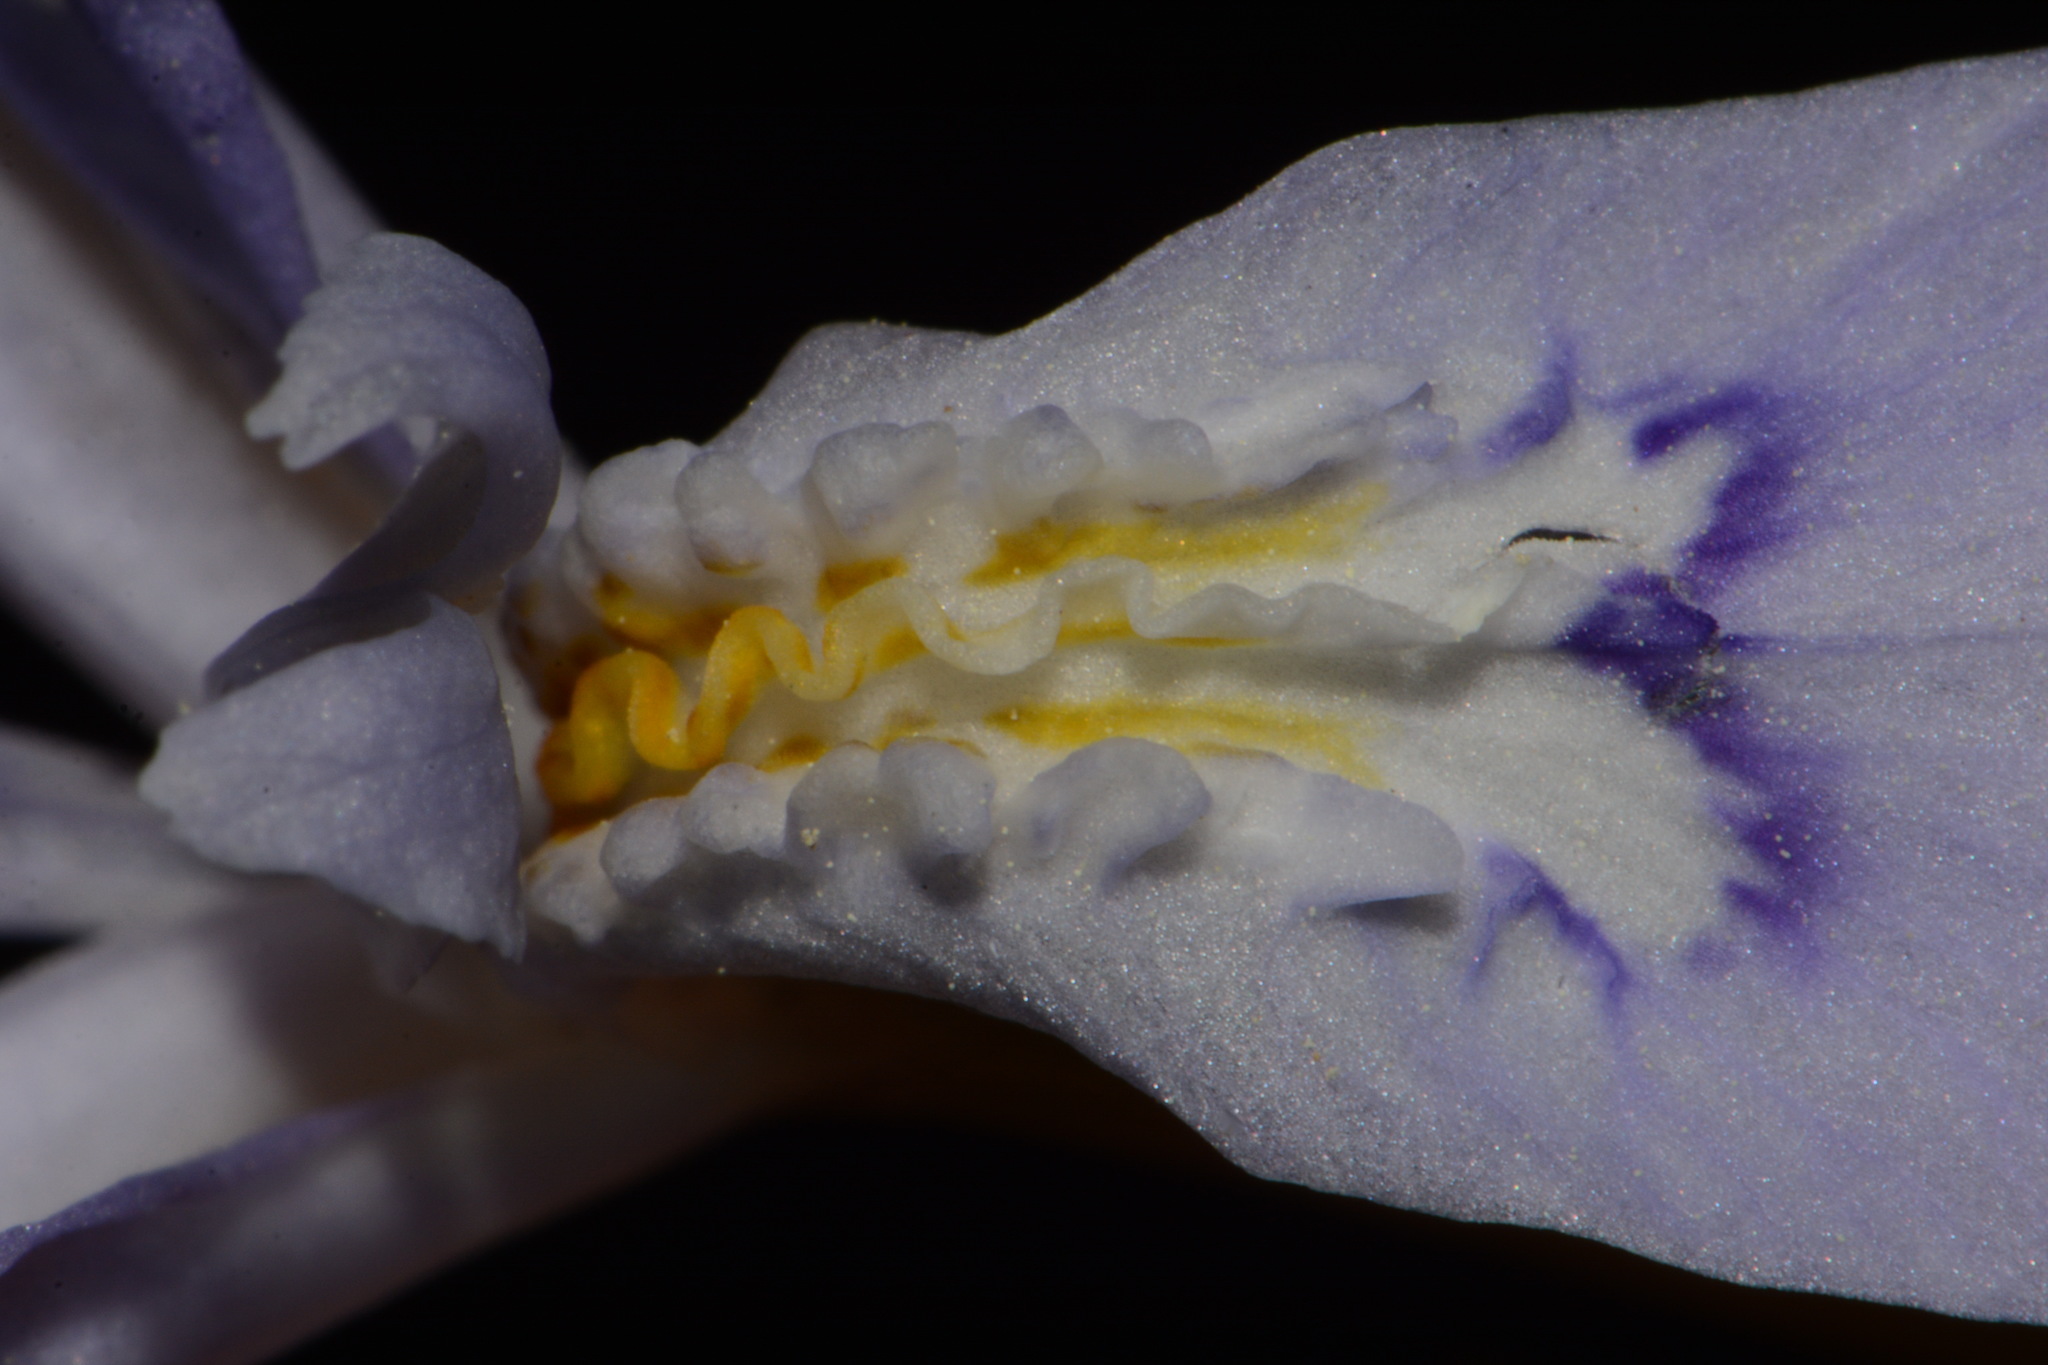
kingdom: Plantae
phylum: Tracheophyta
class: Liliopsida
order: Asparagales
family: Iridaceae
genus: Iris
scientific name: Iris cristata
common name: Crested iris
